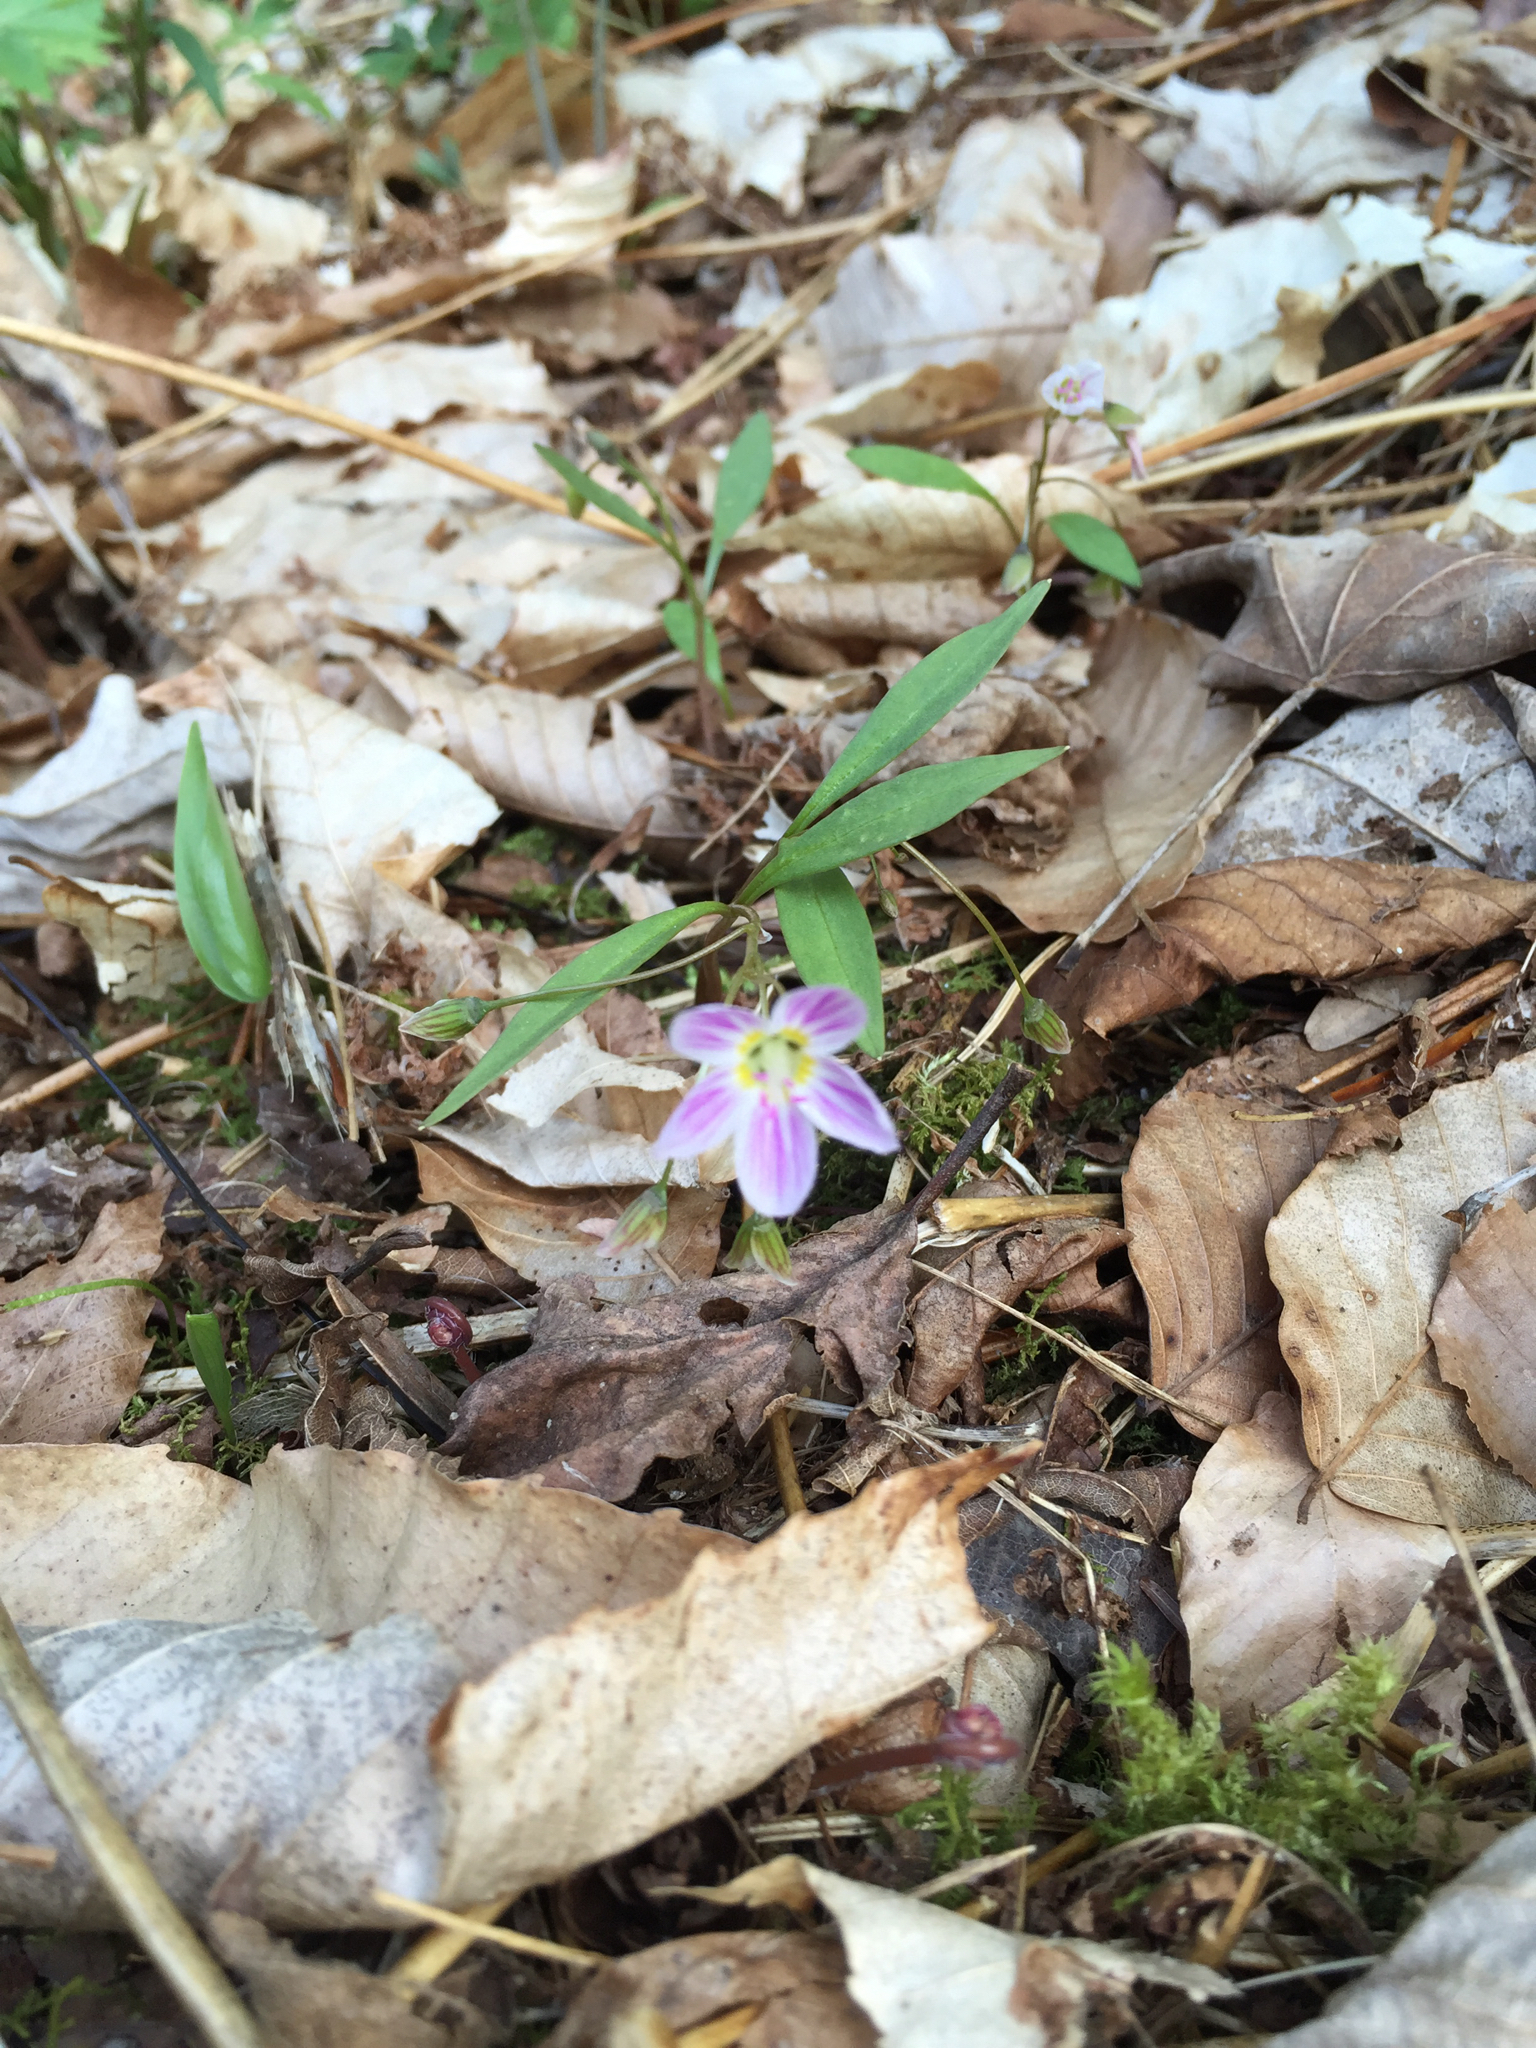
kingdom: Plantae
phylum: Tracheophyta
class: Magnoliopsida
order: Caryophyllales
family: Montiaceae
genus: Claytonia
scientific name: Claytonia caroliniana
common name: Carolina spring beauty
